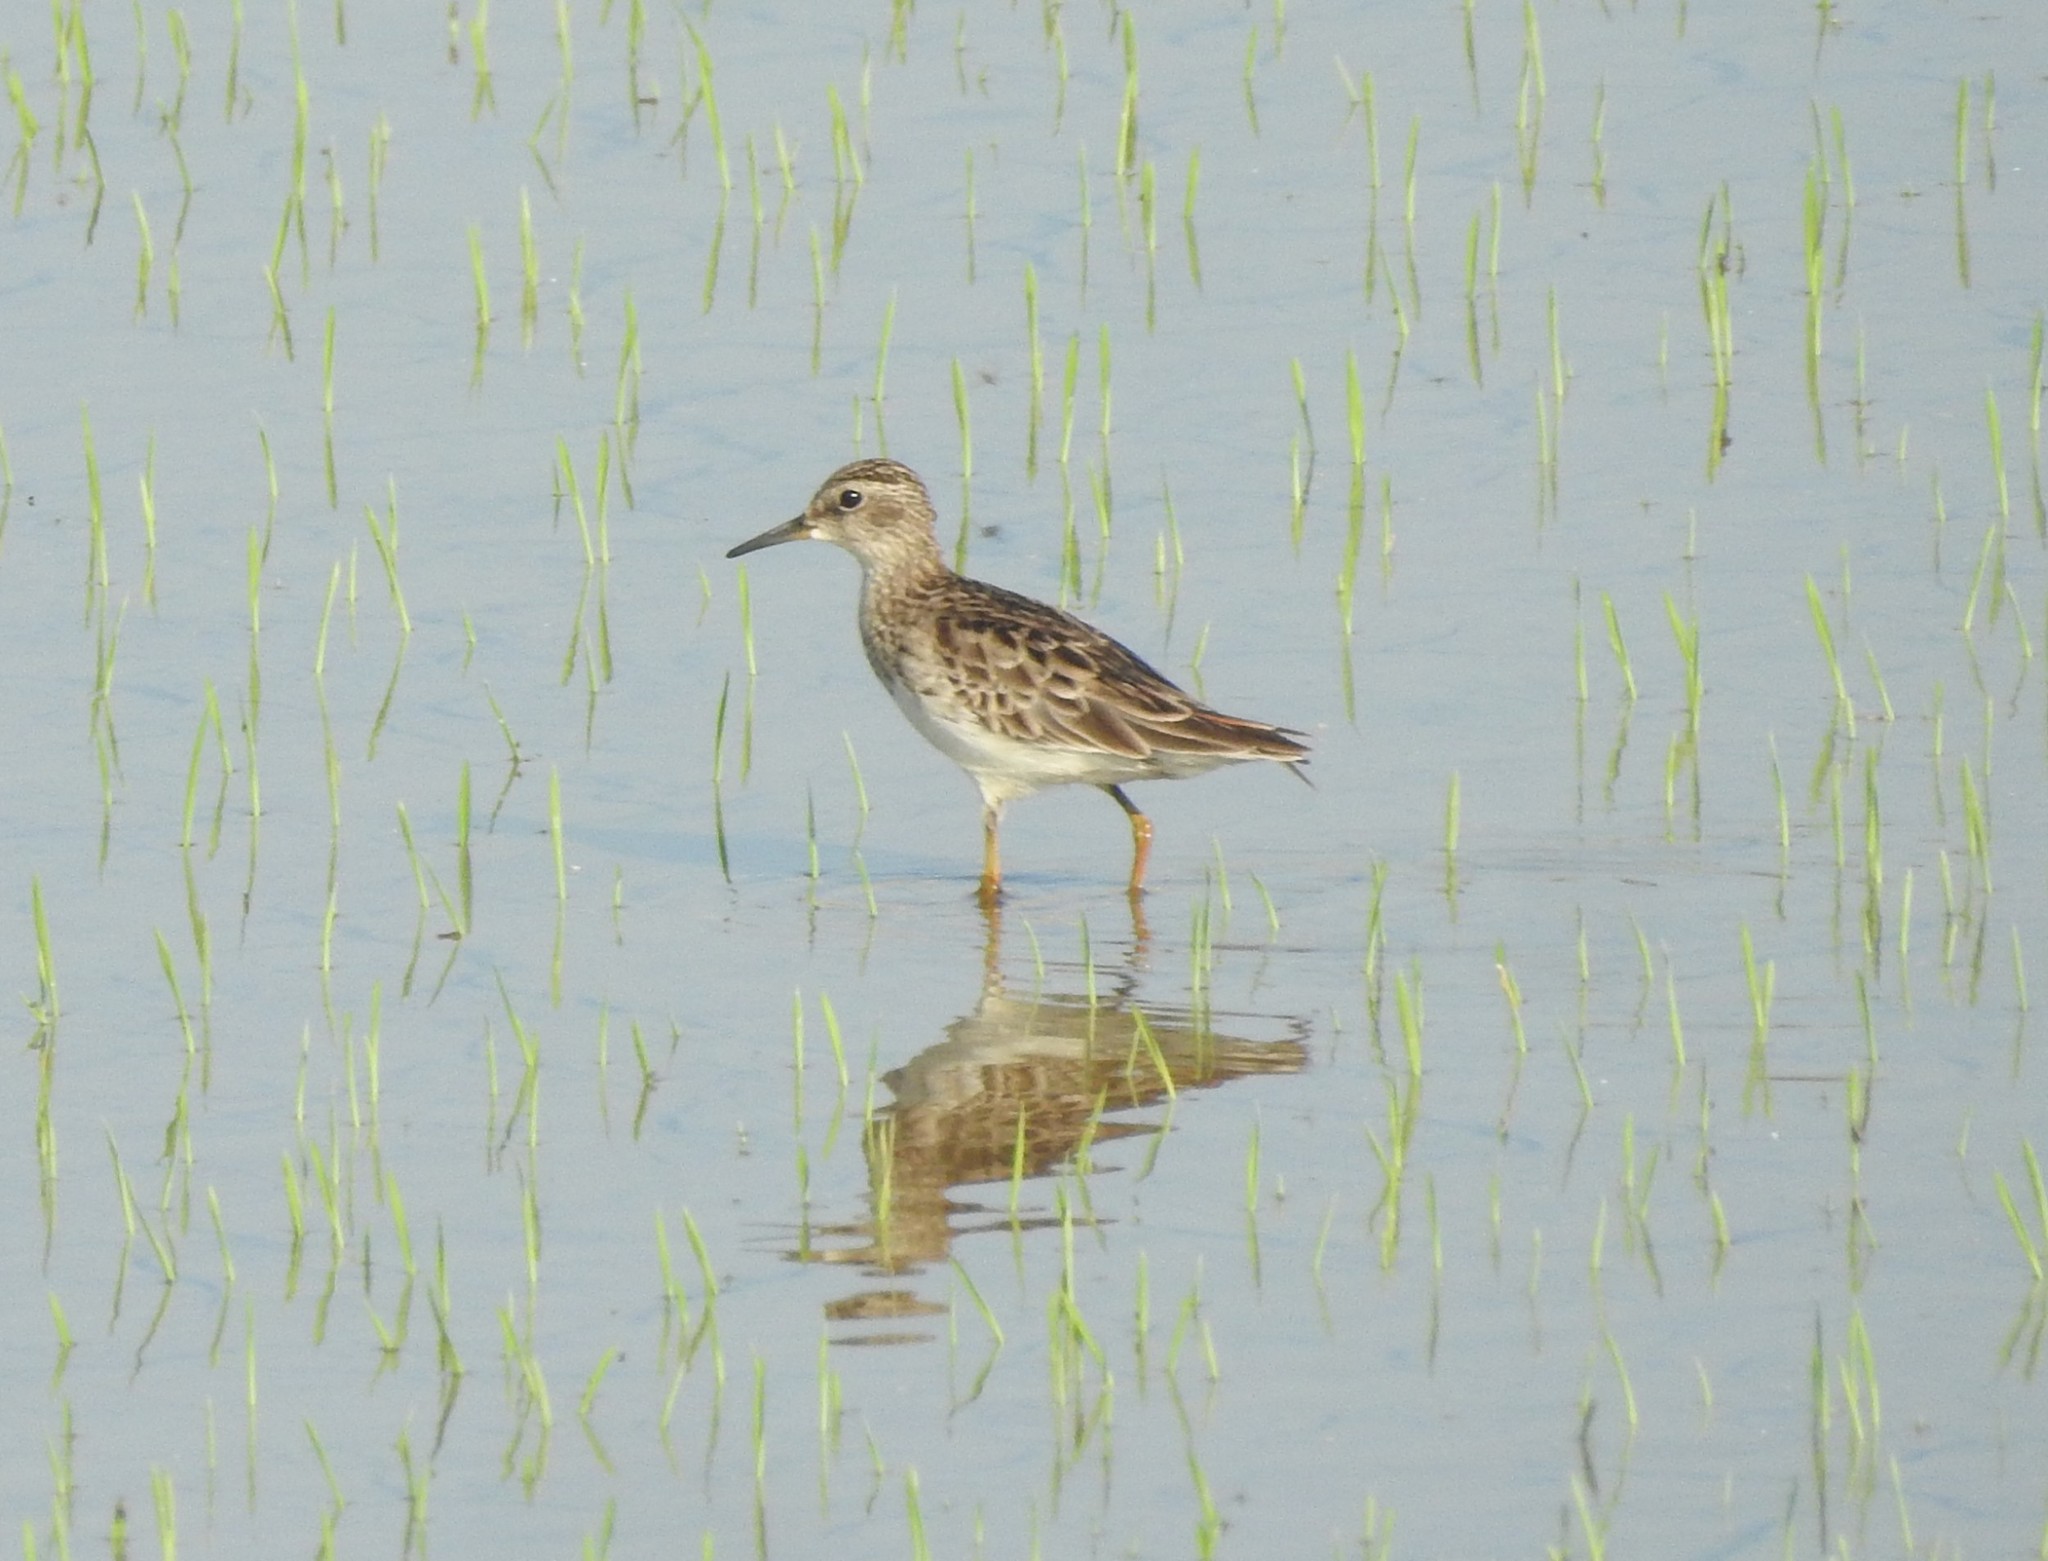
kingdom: Animalia
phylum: Chordata
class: Aves
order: Charadriiformes
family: Scolopacidae
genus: Calidris
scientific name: Calidris subminuta
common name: Long-toed stint
